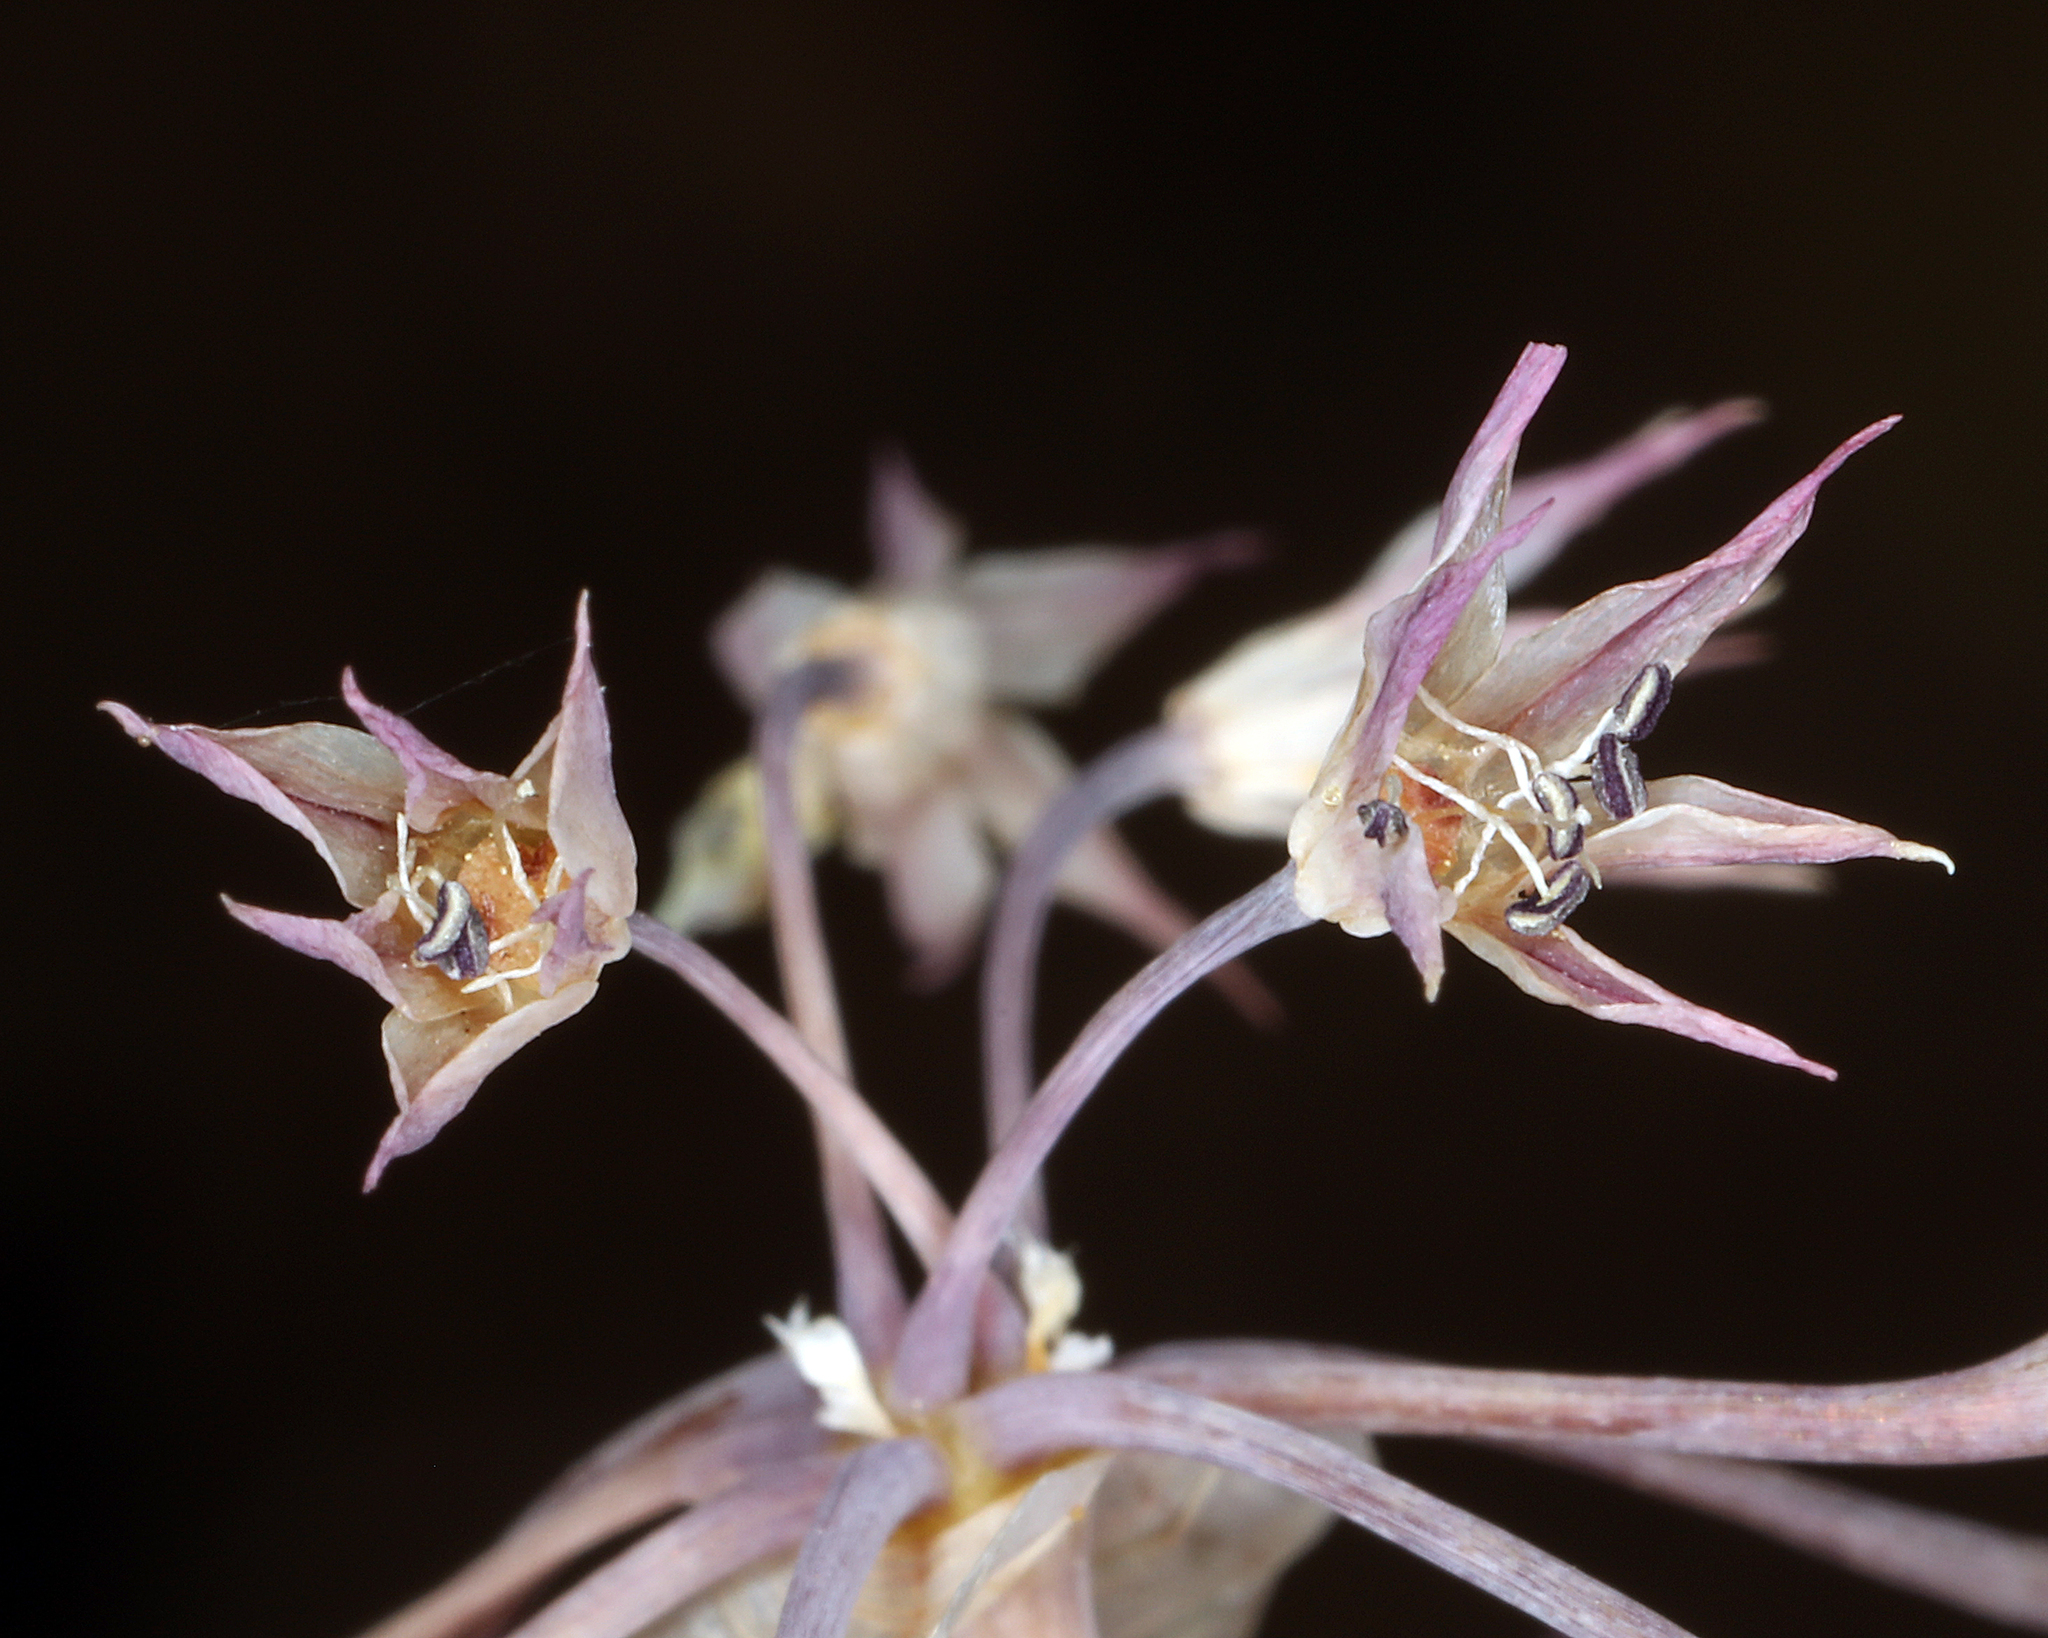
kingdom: Plantae
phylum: Tracheophyta
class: Liliopsida
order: Asparagales
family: Amaryllidaceae
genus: Allium
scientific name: Allium campanulatum
